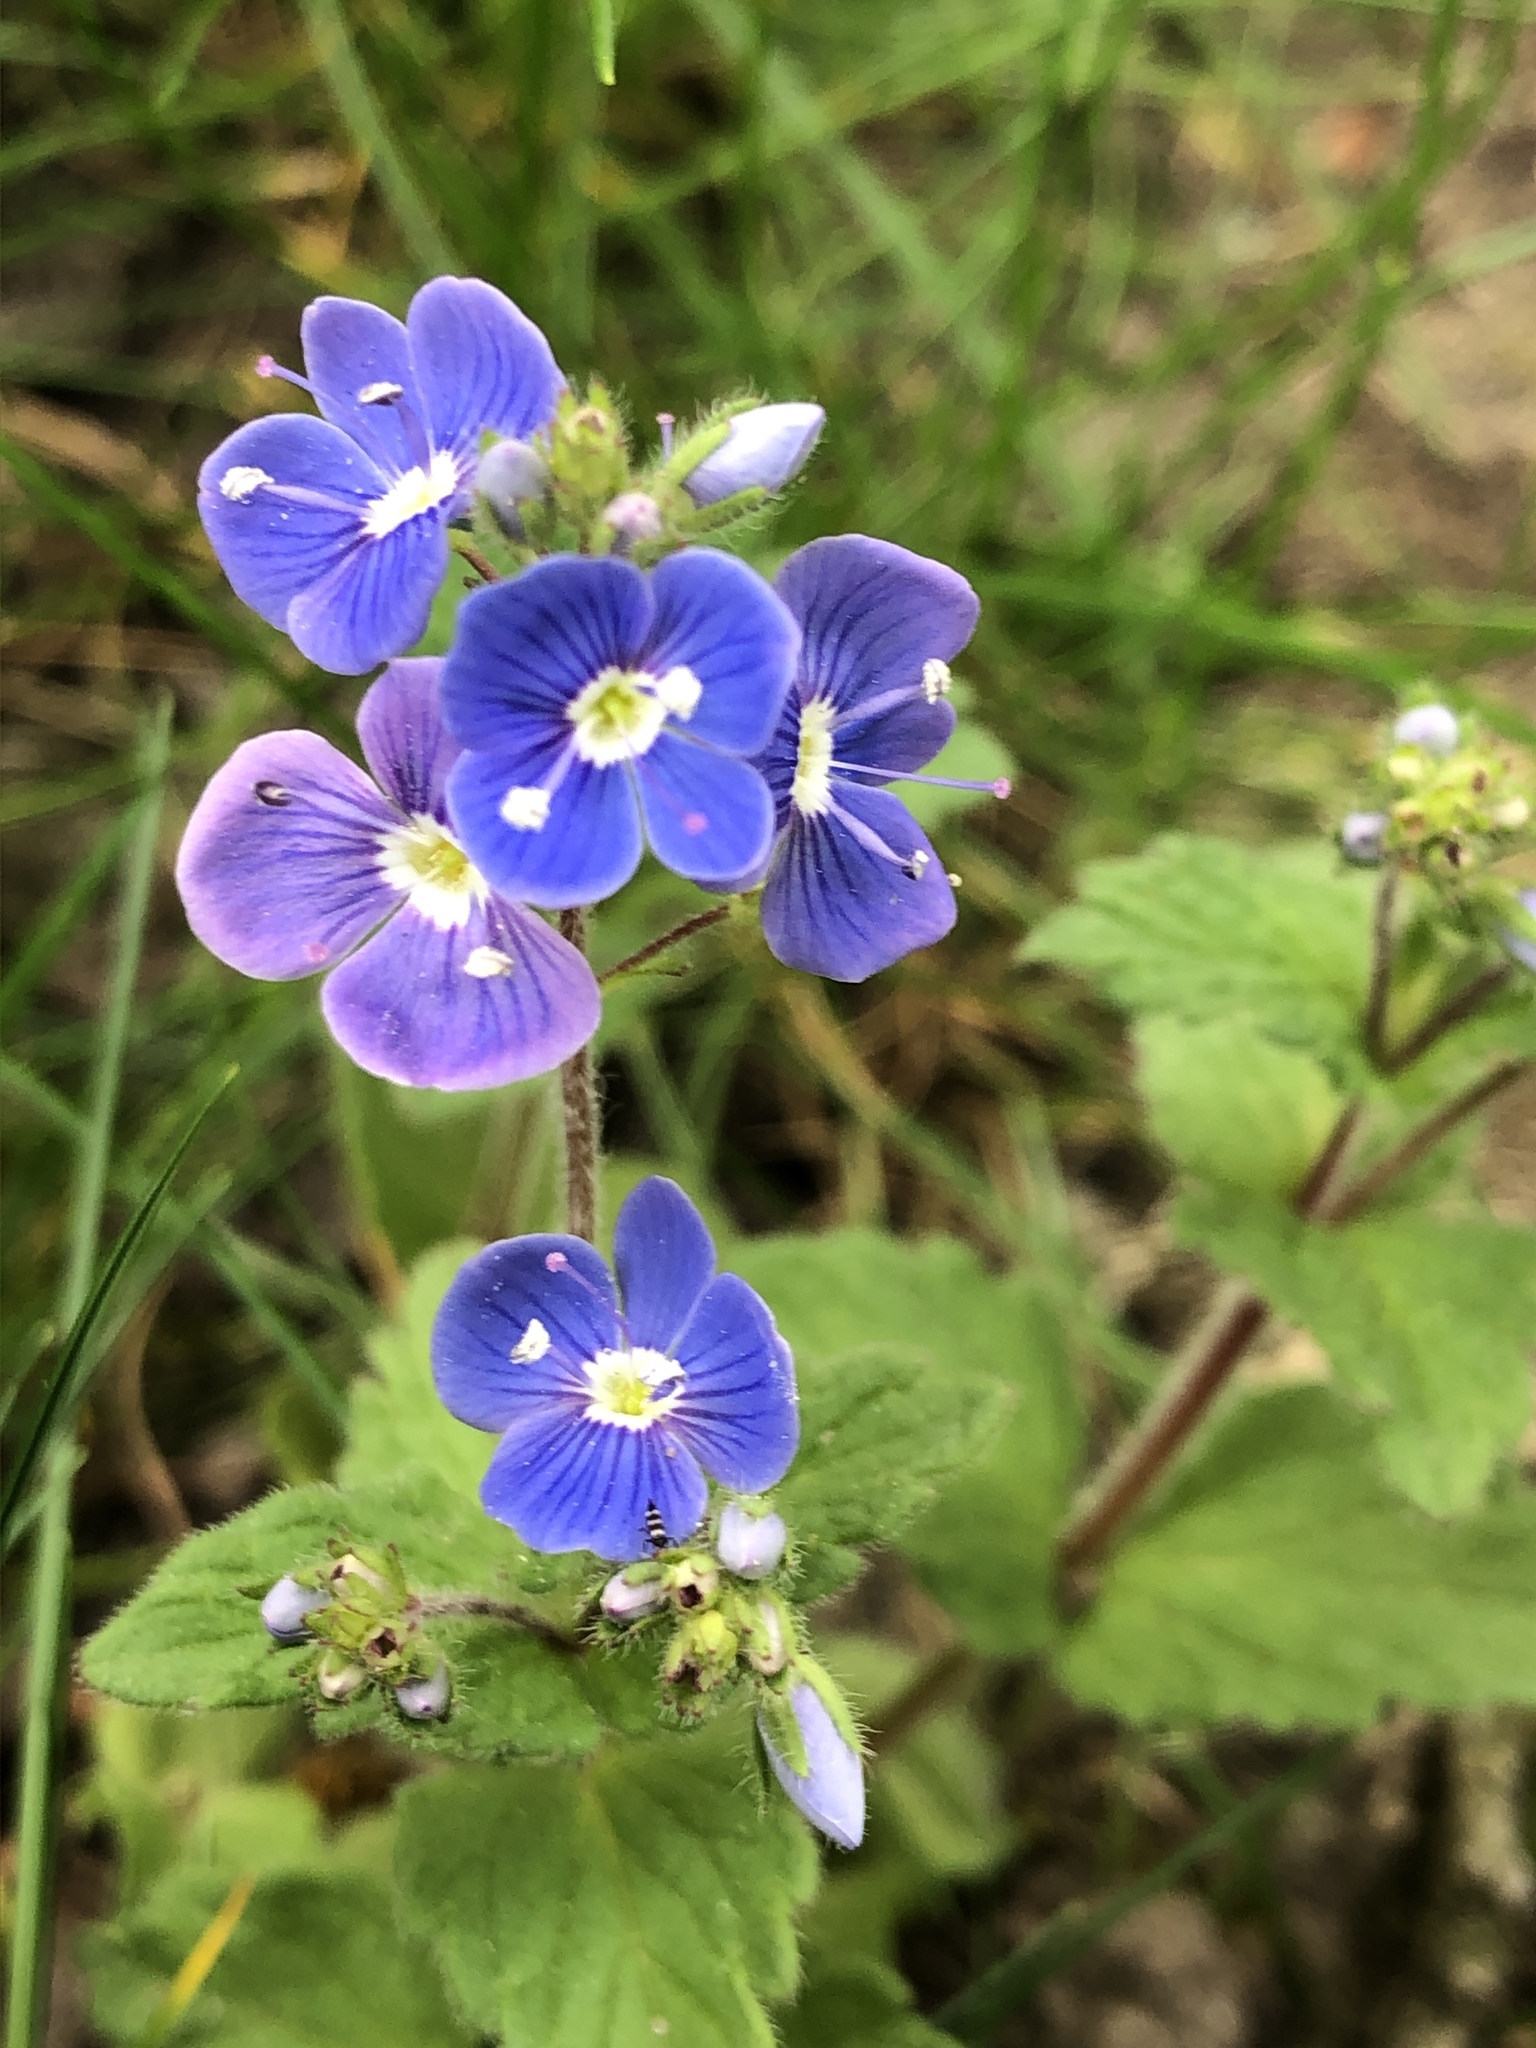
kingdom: Plantae
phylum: Tracheophyta
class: Magnoliopsida
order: Lamiales
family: Plantaginaceae
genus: Veronica
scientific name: Veronica chamaedrys
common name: Germander speedwell
